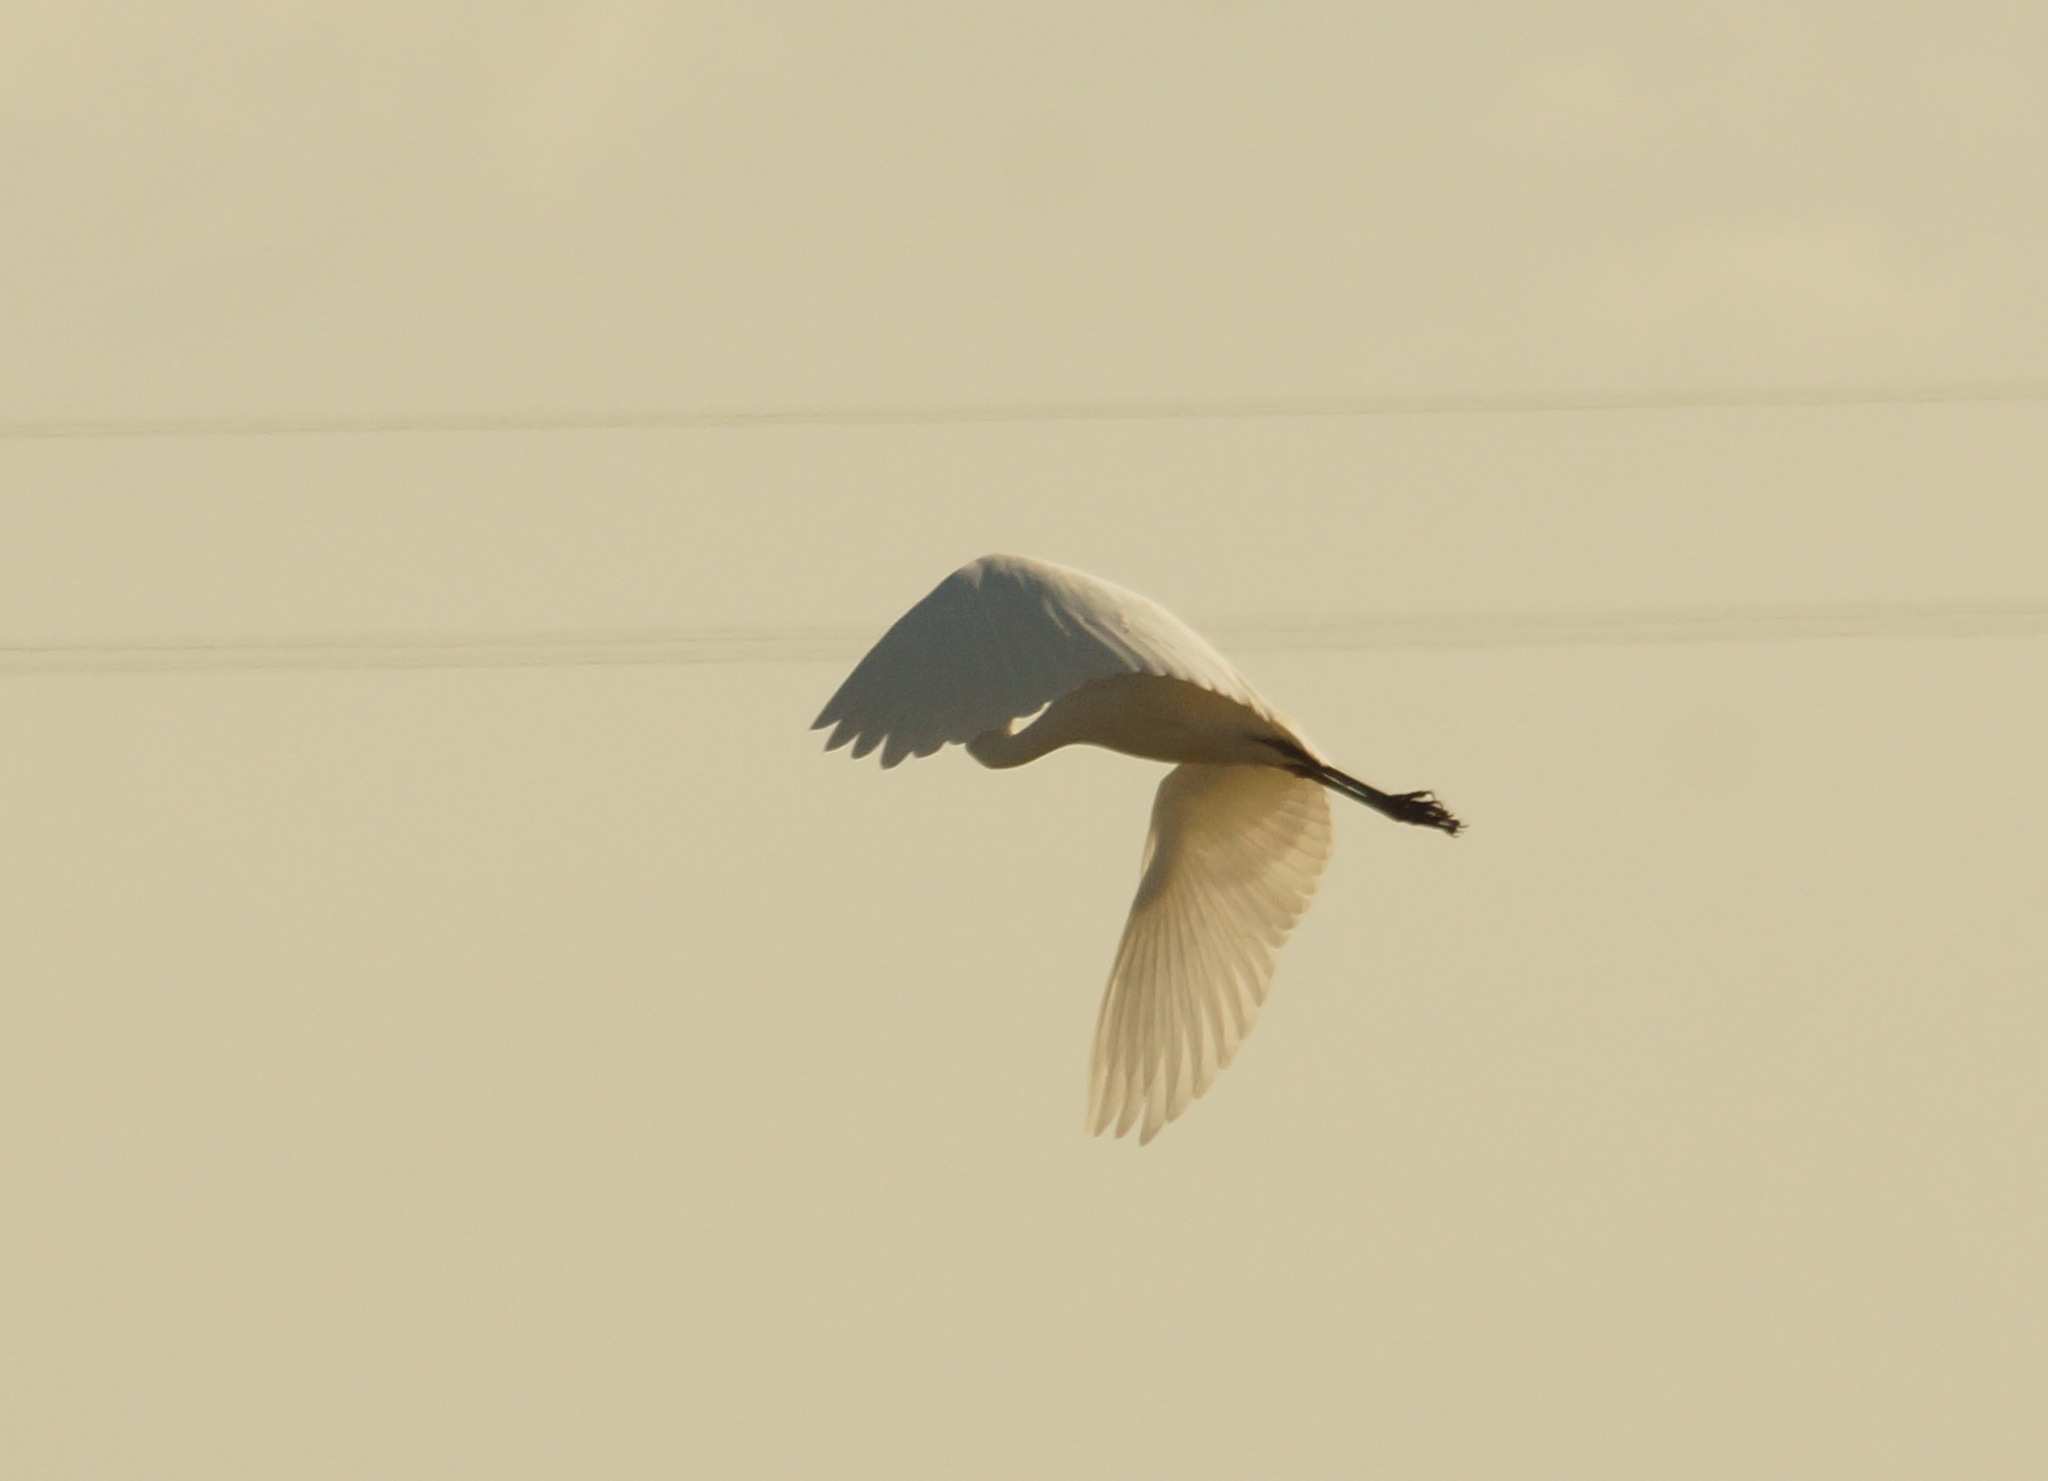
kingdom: Animalia
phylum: Chordata
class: Aves
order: Pelecaniformes
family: Ardeidae
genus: Ardea
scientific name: Ardea alba
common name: Great egret
